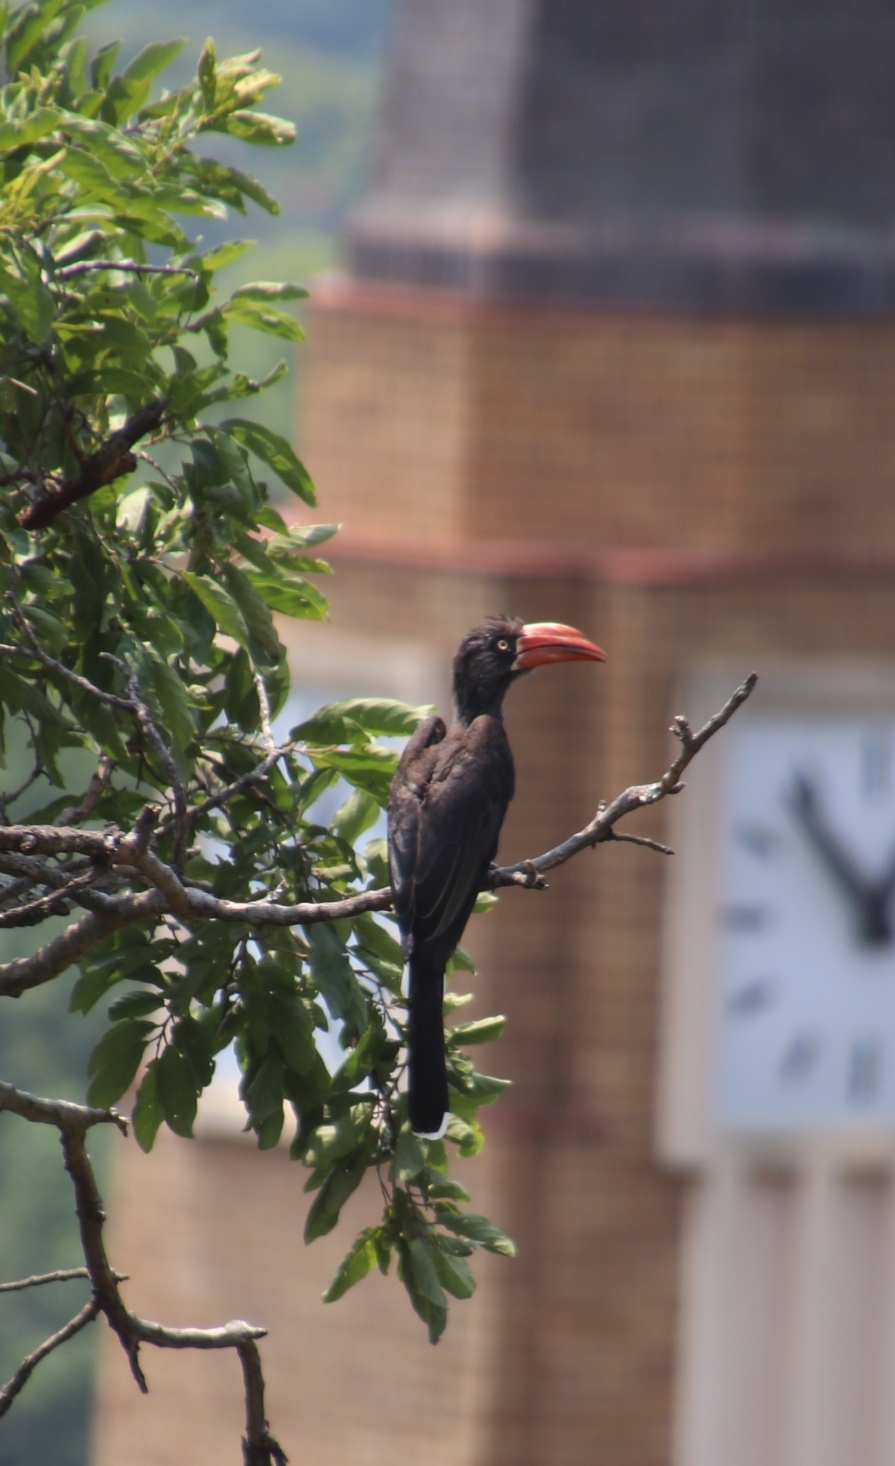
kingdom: Animalia
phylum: Chordata
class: Aves
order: Bucerotiformes
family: Bucerotidae
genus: Lophoceros
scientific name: Lophoceros alboterminatus
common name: Crowned hornbill
